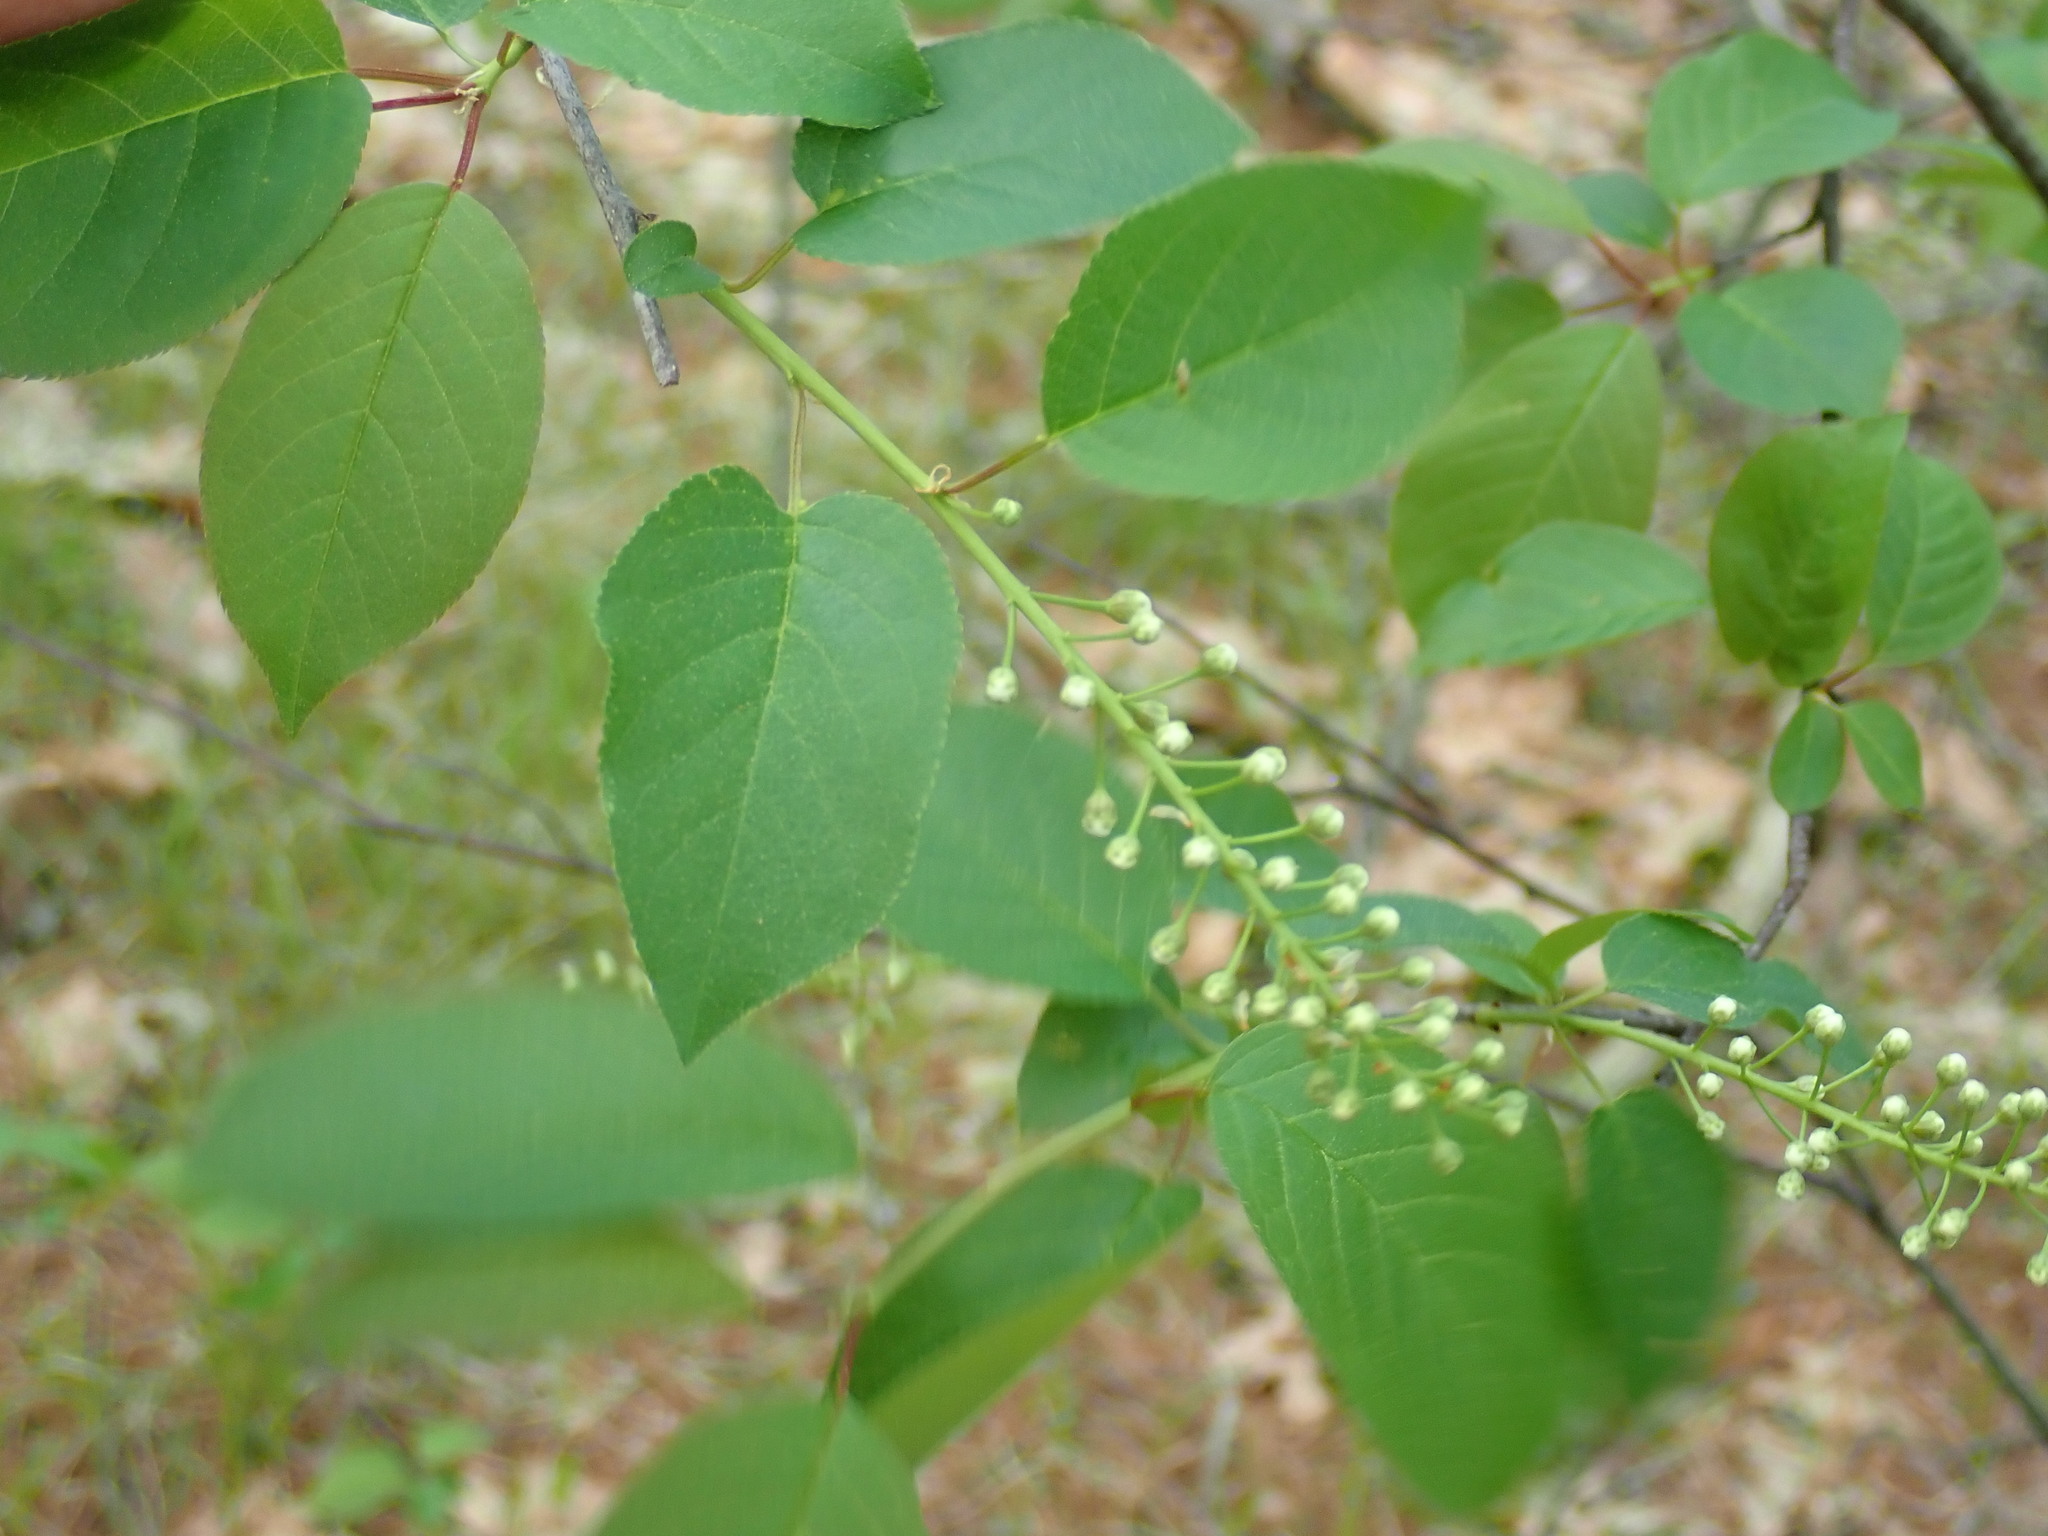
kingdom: Plantae
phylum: Tracheophyta
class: Magnoliopsida
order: Rosales
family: Rosaceae
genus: Prunus
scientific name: Prunus virginiana
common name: Chokecherry
